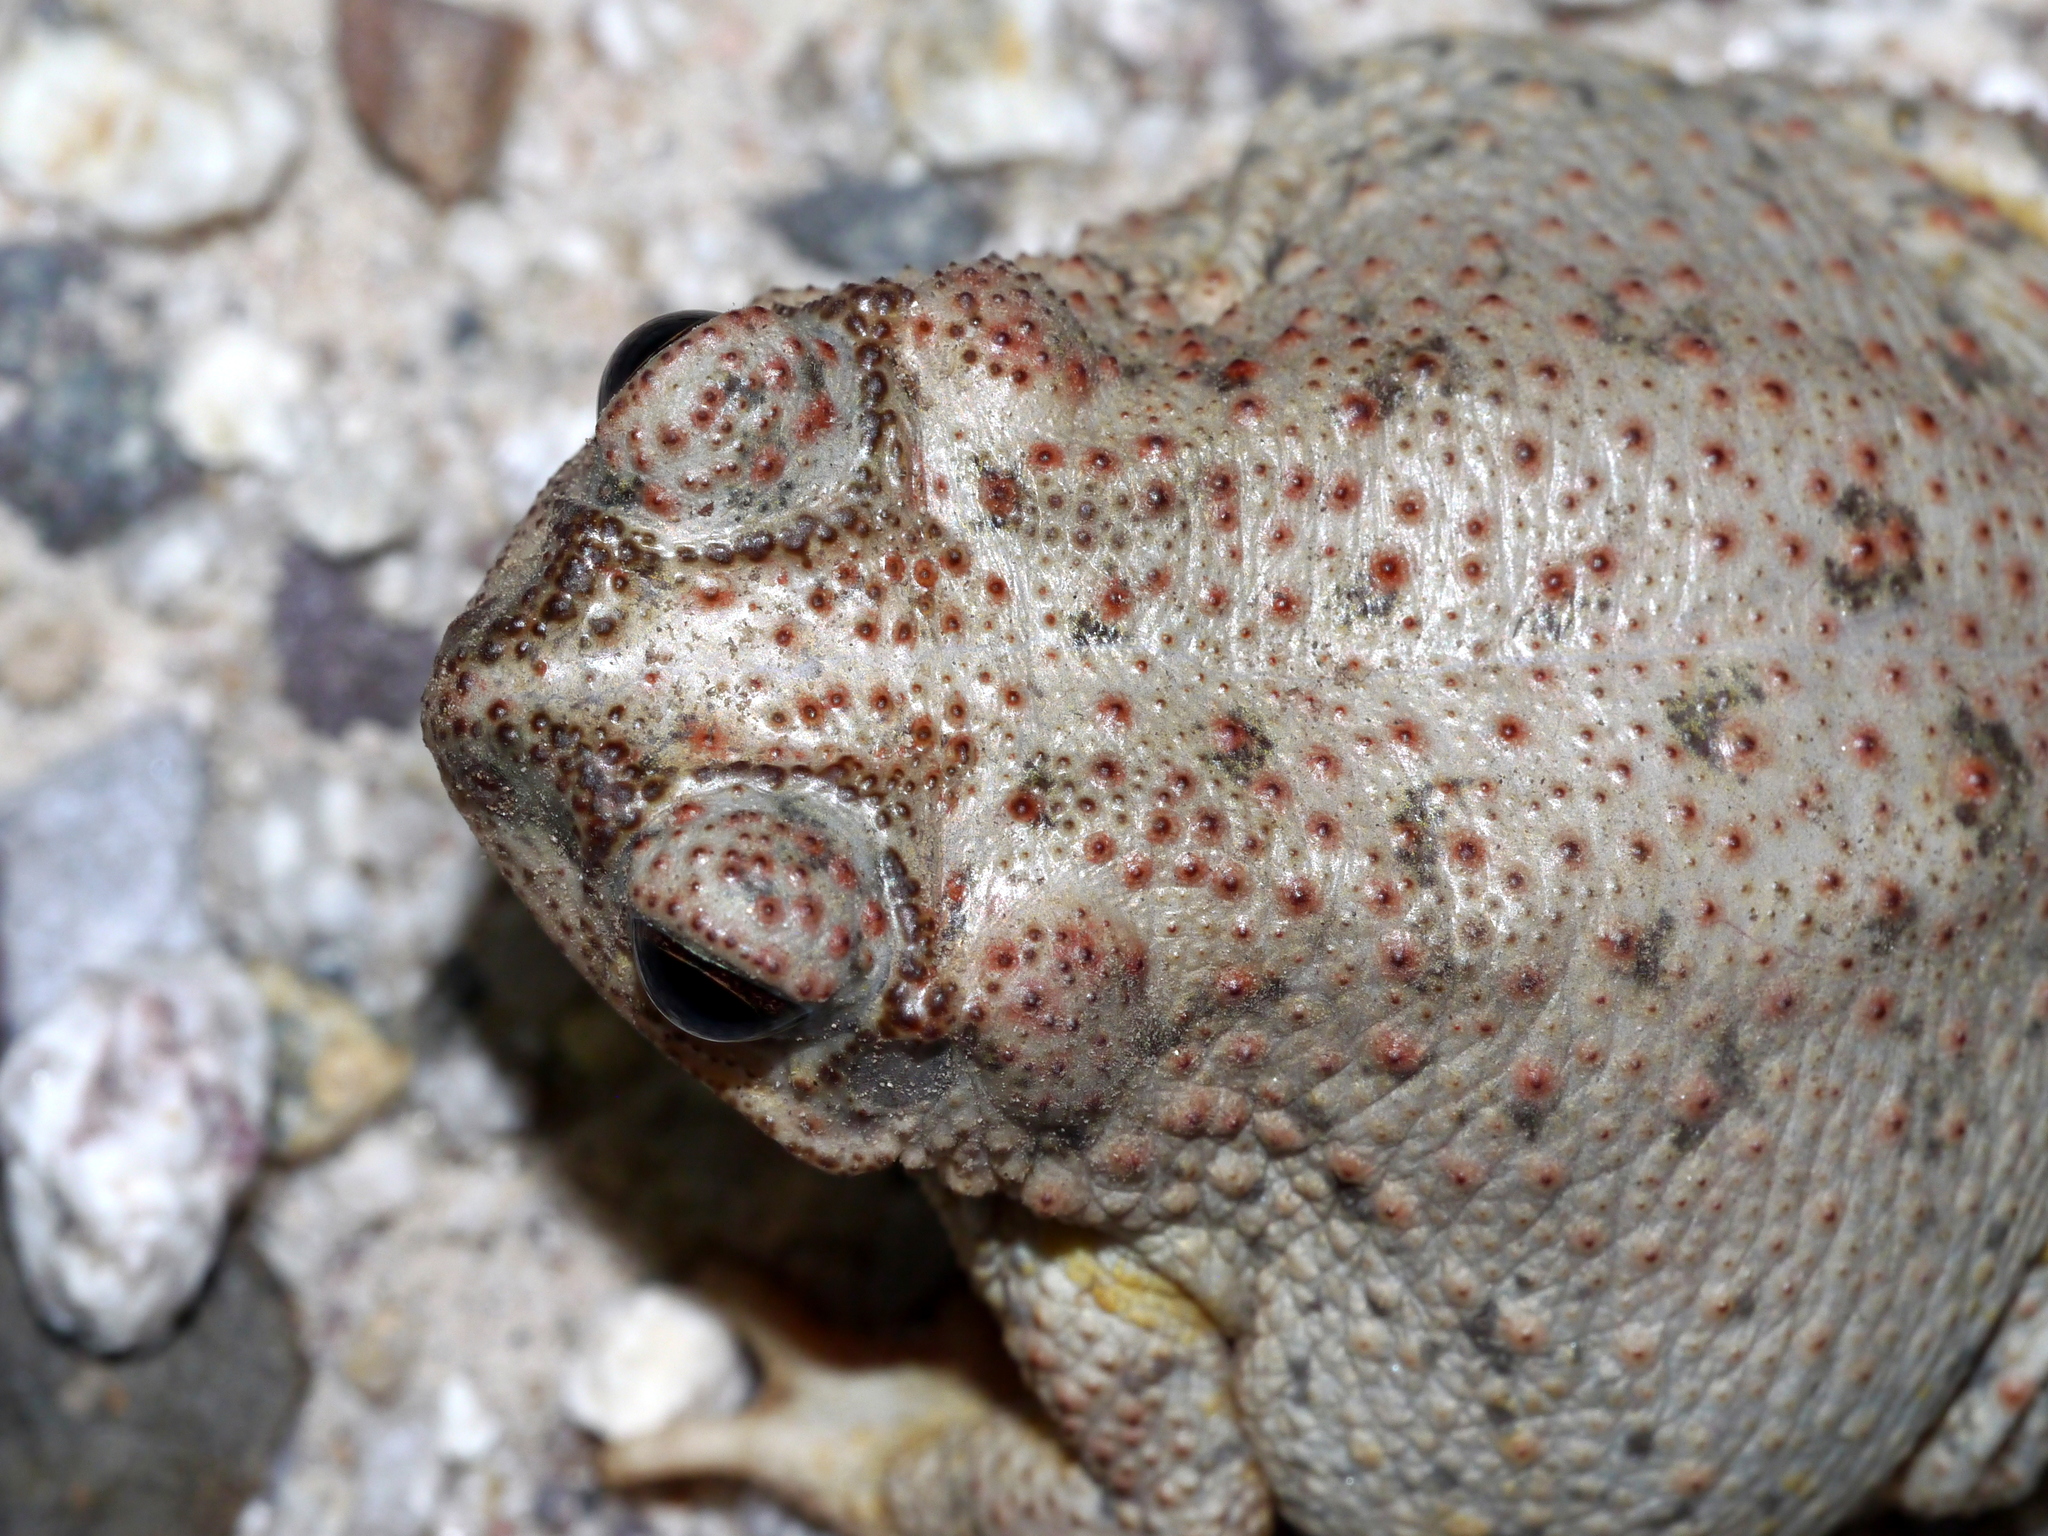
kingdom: Animalia
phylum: Chordata
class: Amphibia
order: Anura
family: Bufonidae
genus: Anaxyrus
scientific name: Anaxyrus punctatus
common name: Red-spotted toad
